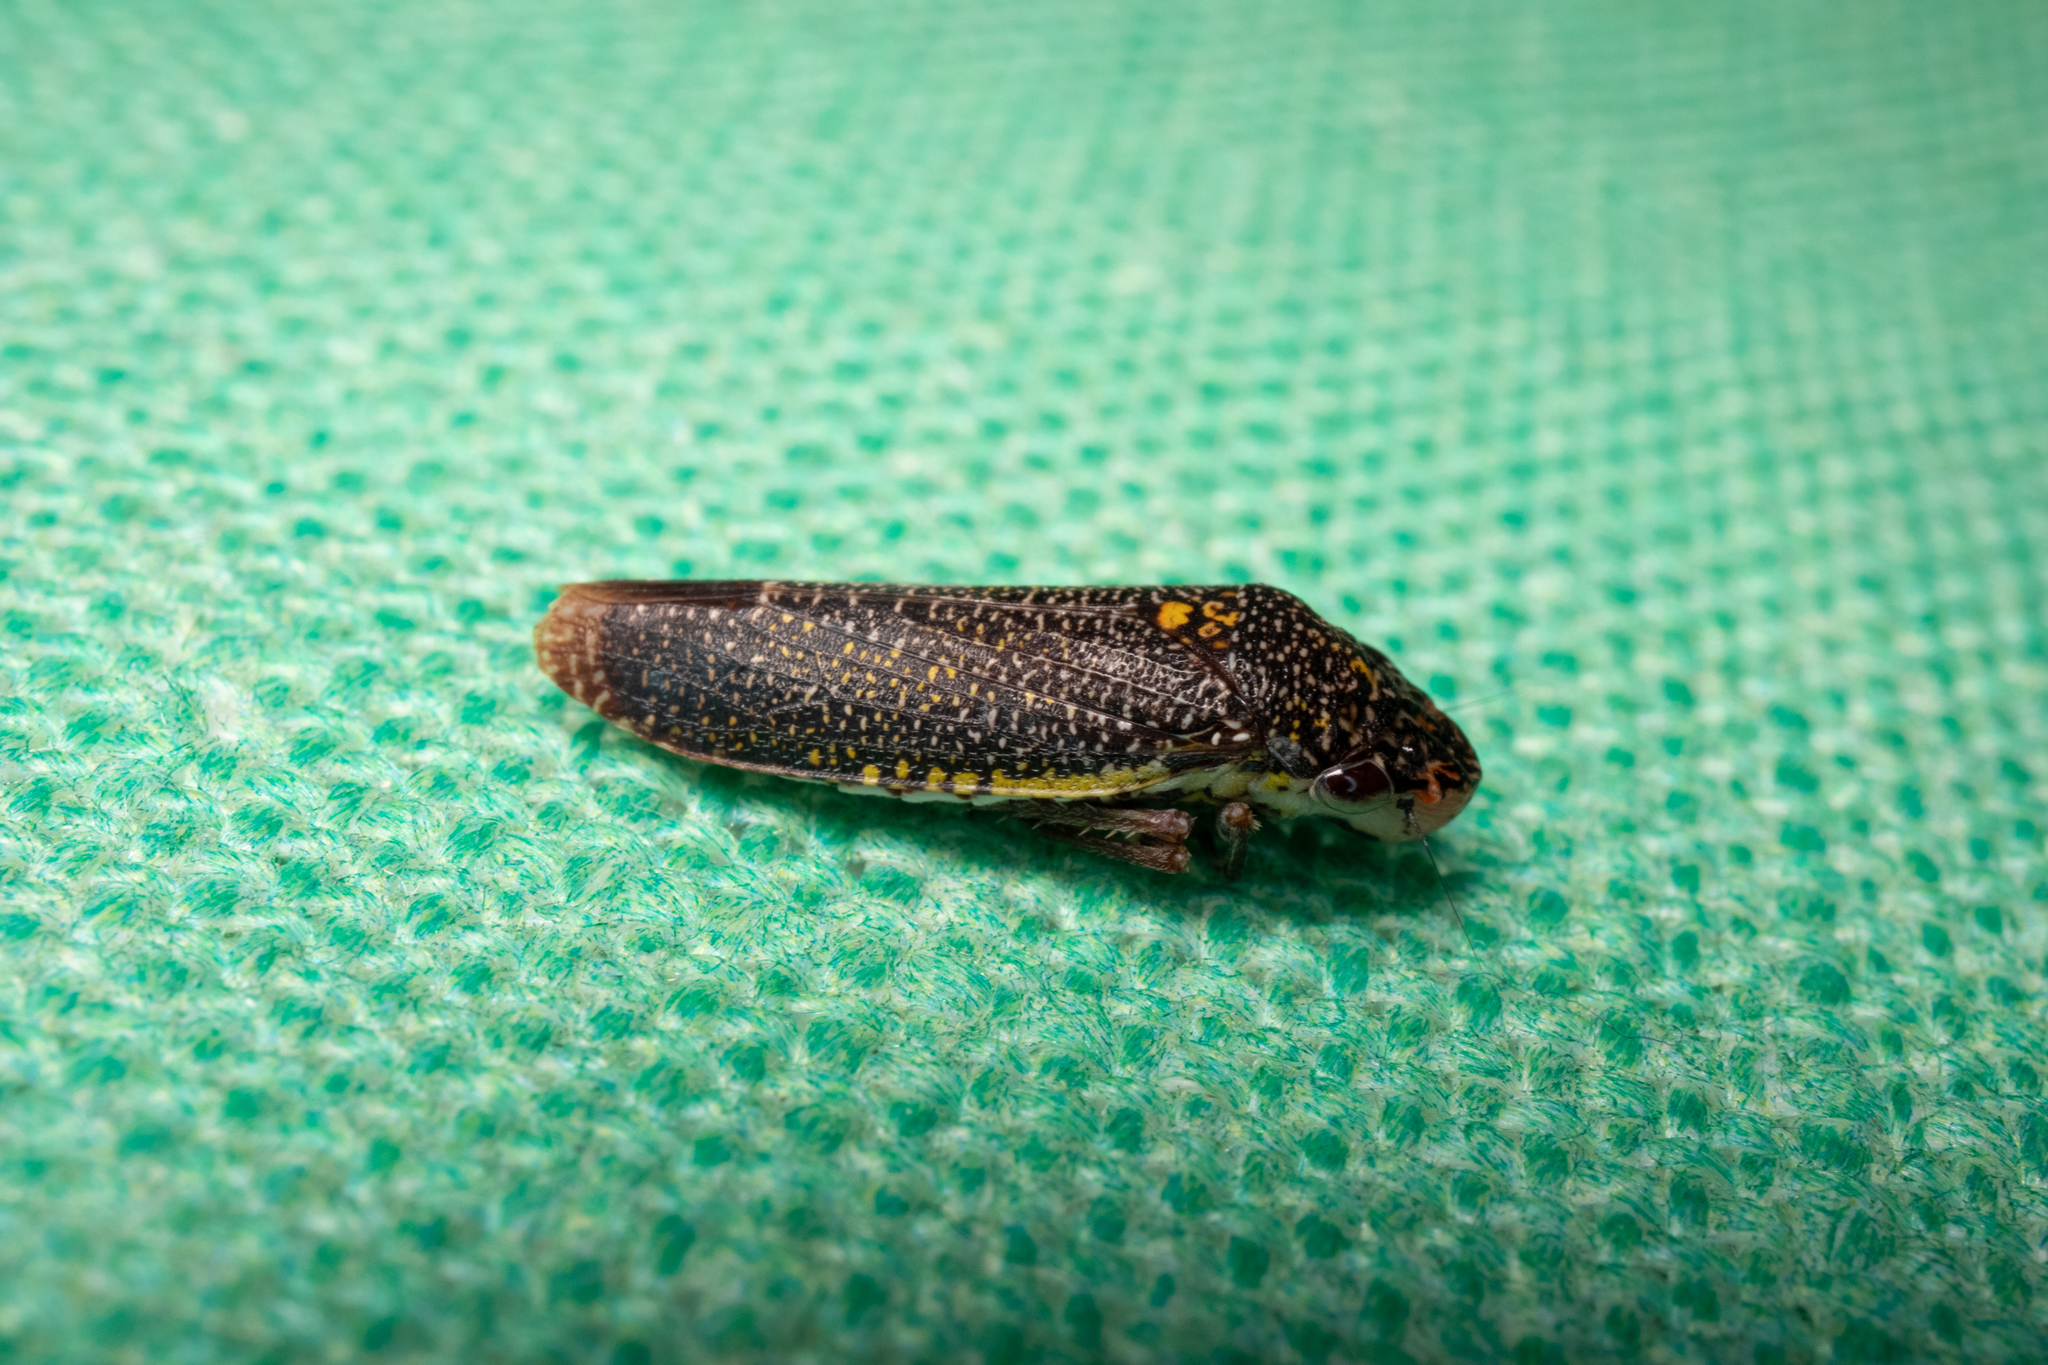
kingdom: Animalia
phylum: Arthropoda
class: Insecta
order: Hemiptera
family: Cicadellidae
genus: Paraulacizes
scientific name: Paraulacizes irrorata
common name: Speckled sharpshooter
